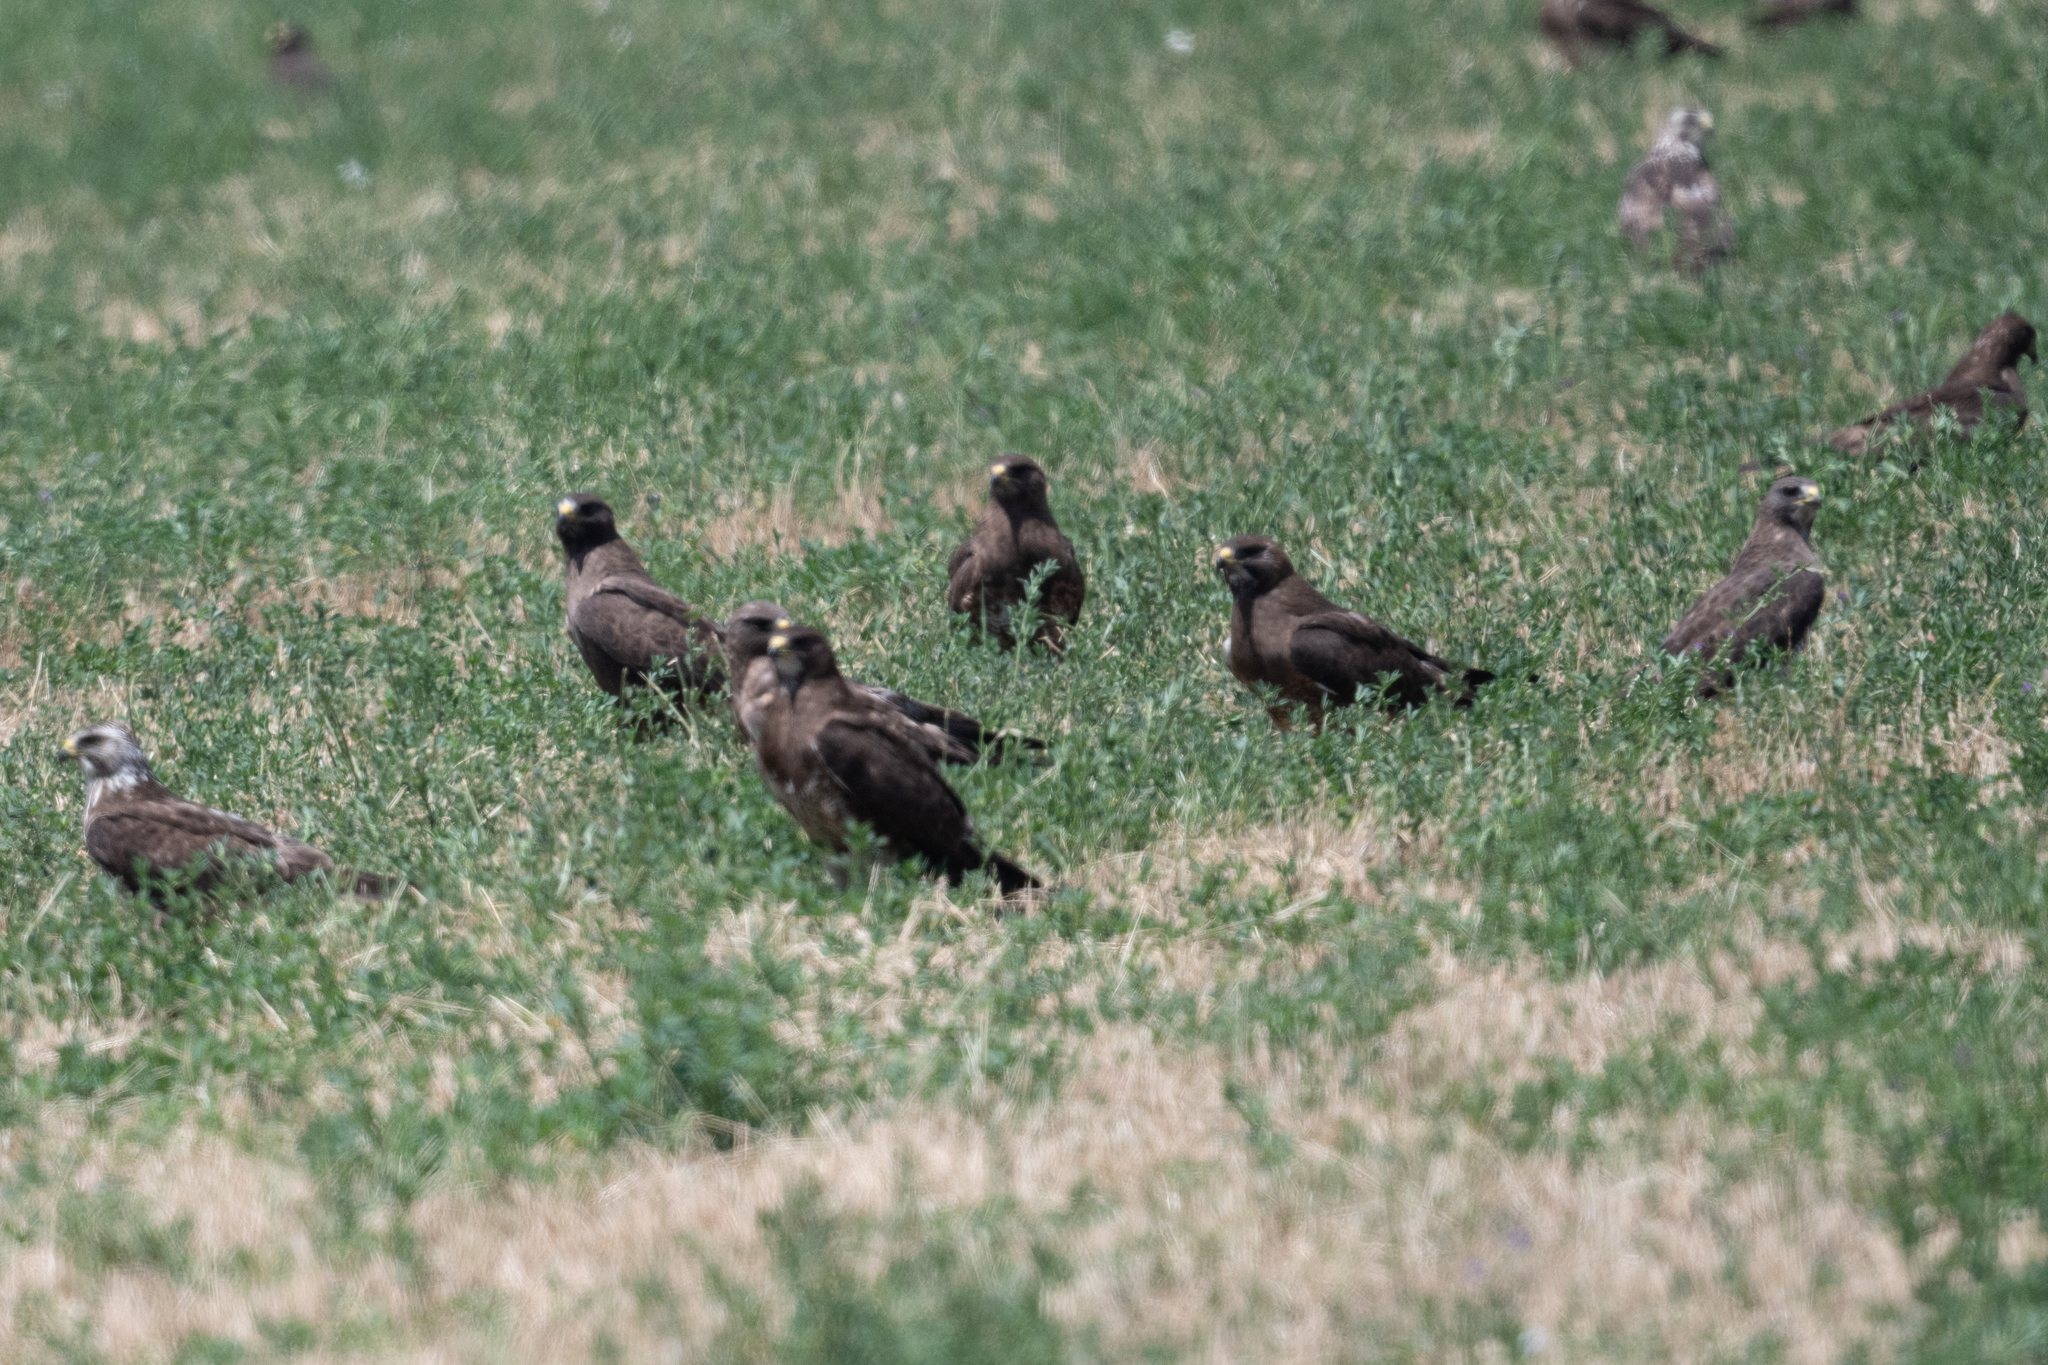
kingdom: Animalia
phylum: Chordata
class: Aves
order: Accipitriformes
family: Accipitridae
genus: Buteo
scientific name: Buteo swainsoni
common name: Swainson's hawk
